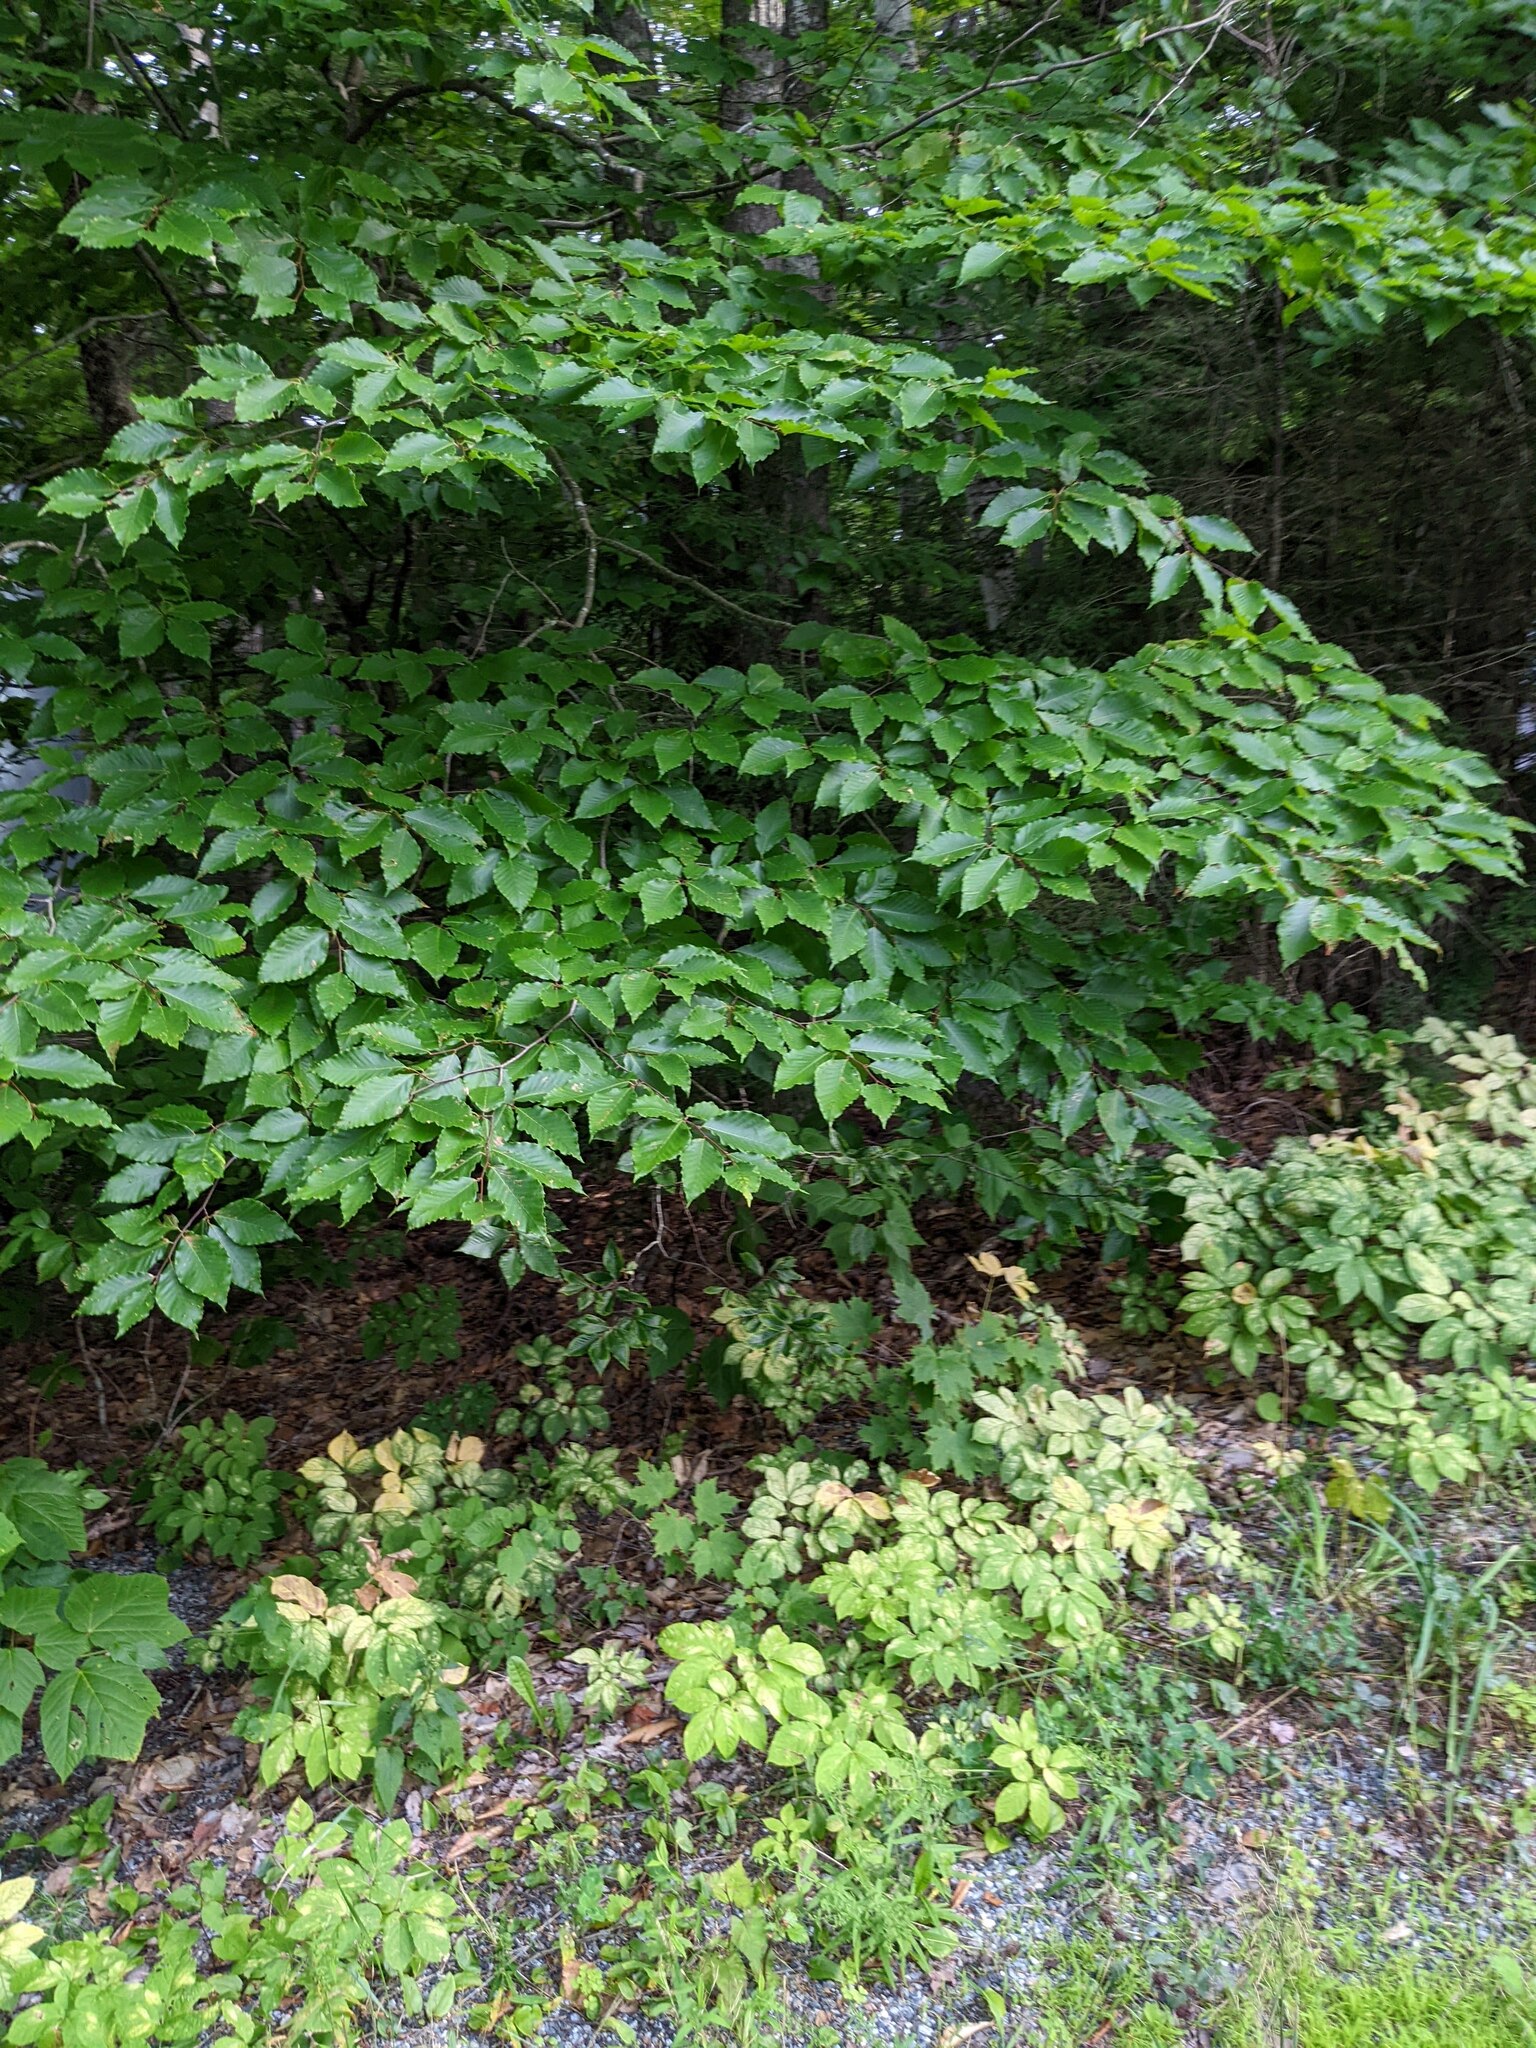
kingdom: Plantae
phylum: Tracheophyta
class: Magnoliopsida
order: Fagales
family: Fagaceae
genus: Fagus
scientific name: Fagus grandifolia
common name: American beech
